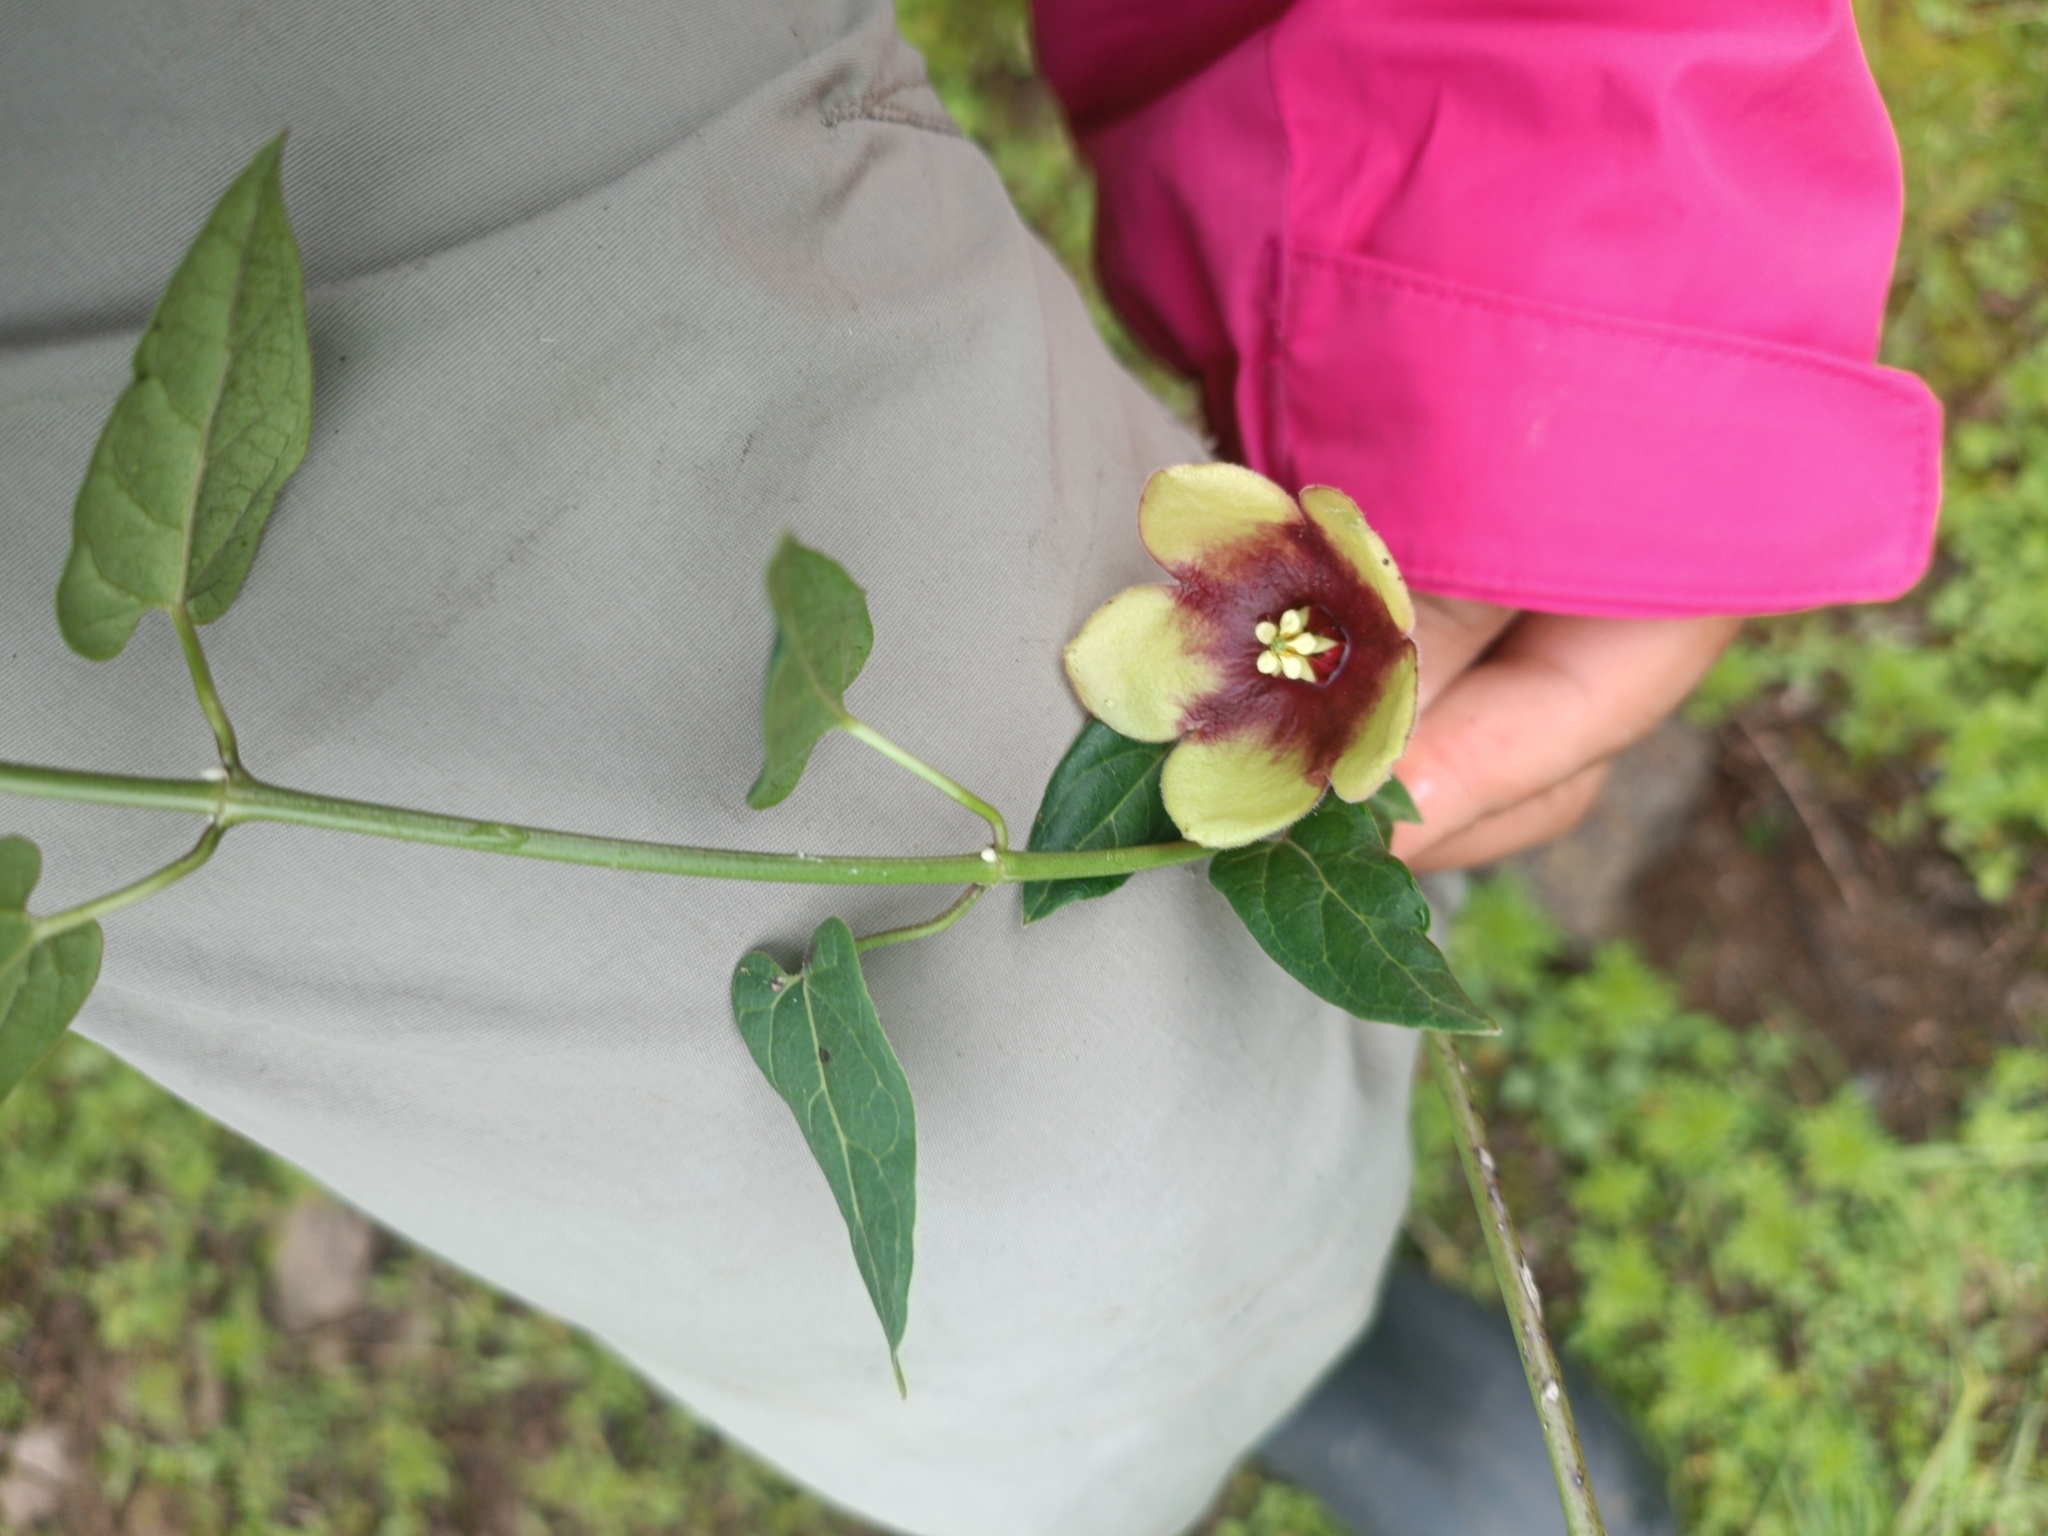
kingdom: Plantae
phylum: Tracheophyta
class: Magnoliopsida
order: Gentianales
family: Apocynaceae
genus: Pentacyphus
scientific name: Pentacyphus andinus
